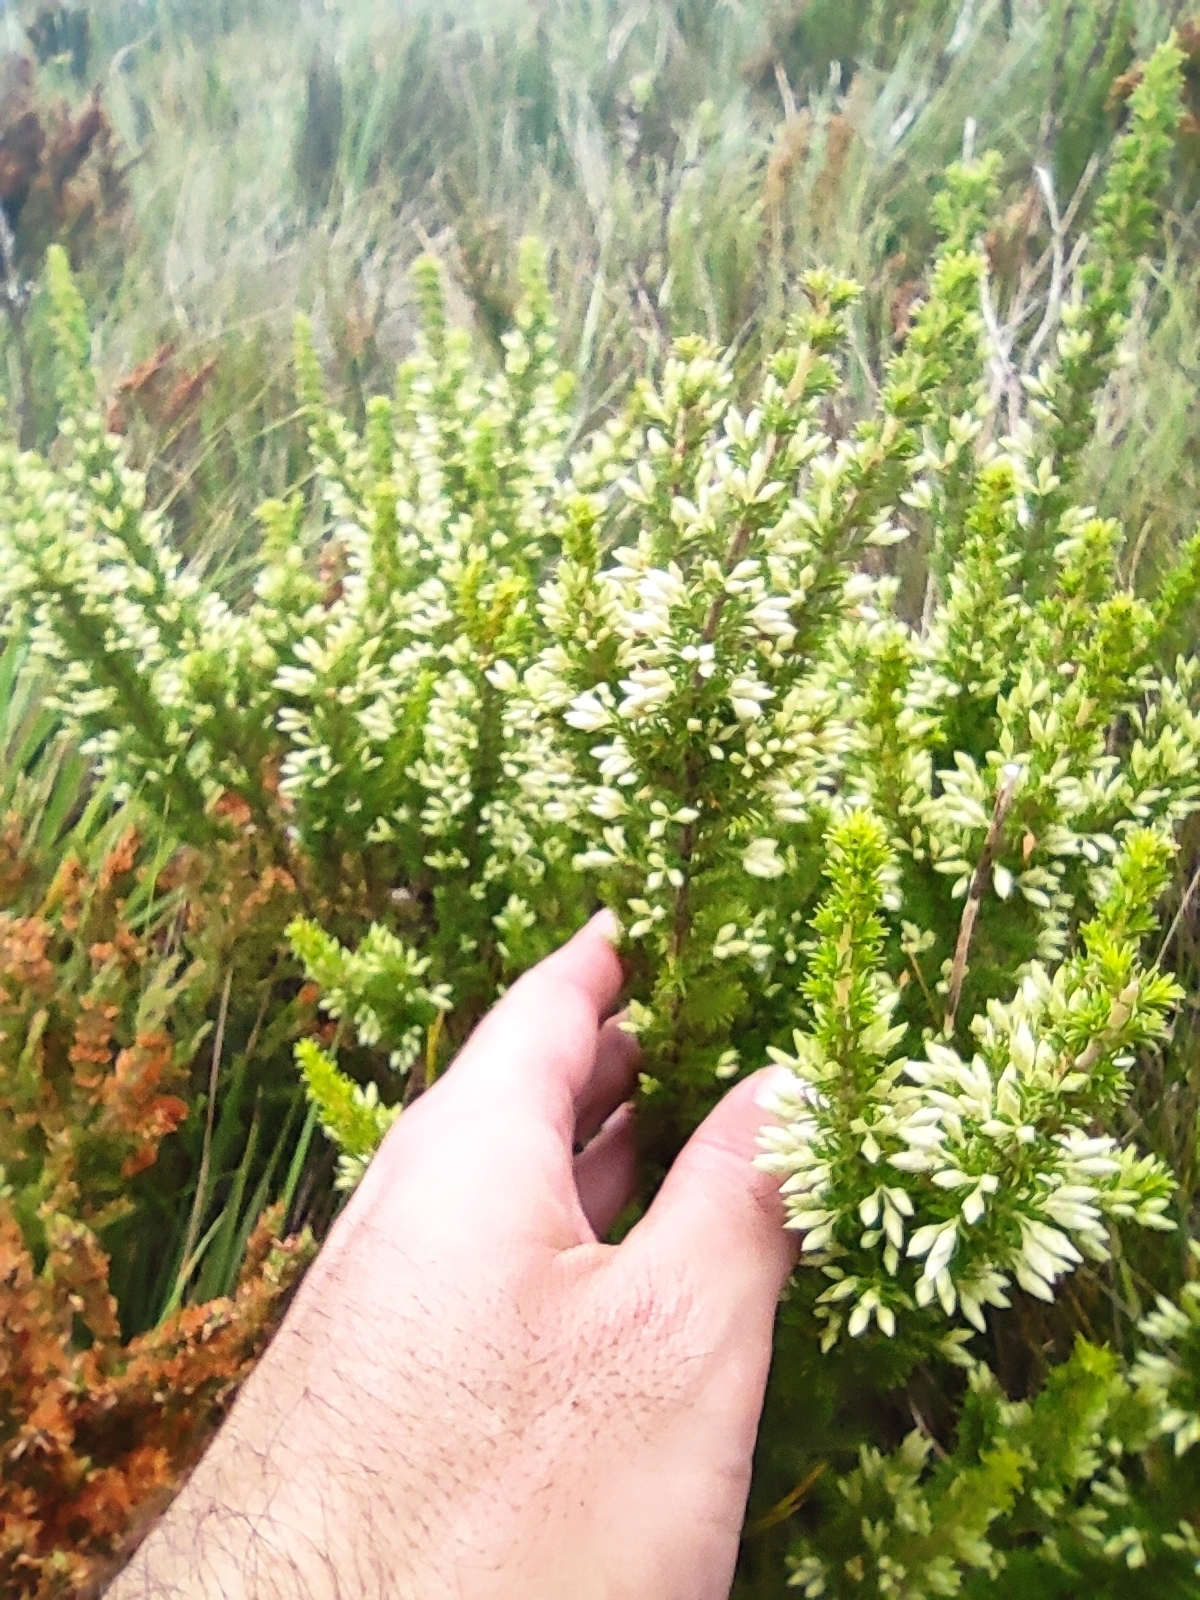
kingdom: Plantae
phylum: Tracheophyta
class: Magnoliopsida
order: Ericales
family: Ericaceae
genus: Erica
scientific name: Erica penicilliformis
